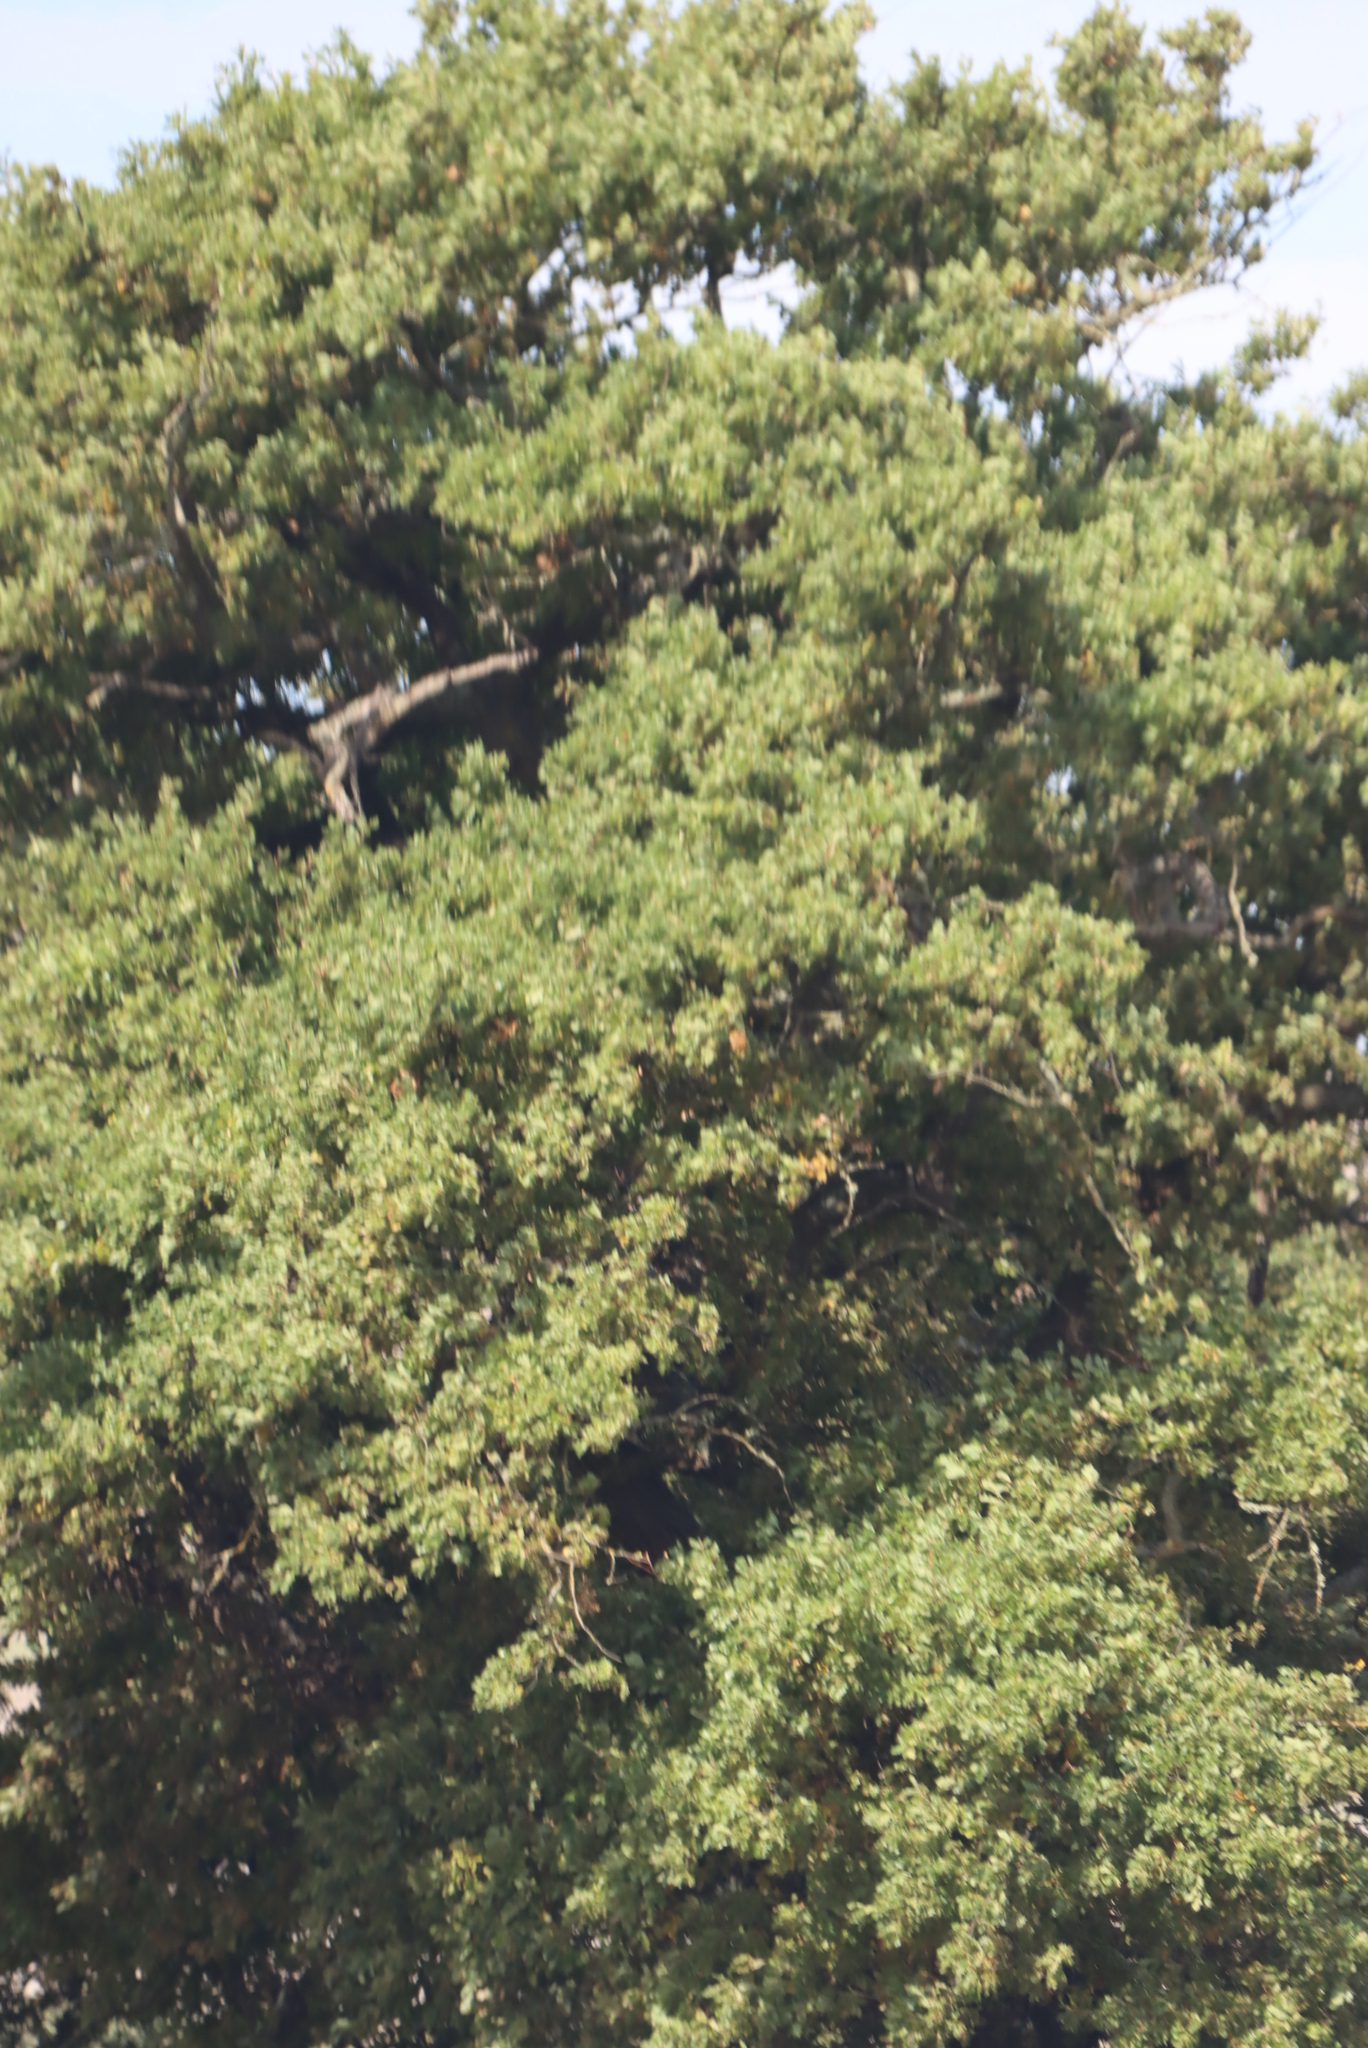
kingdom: Plantae
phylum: Tracheophyta
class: Magnoliopsida
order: Fagales
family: Fagaceae
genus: Quercus
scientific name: Quercus robur
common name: Pedunculate oak
